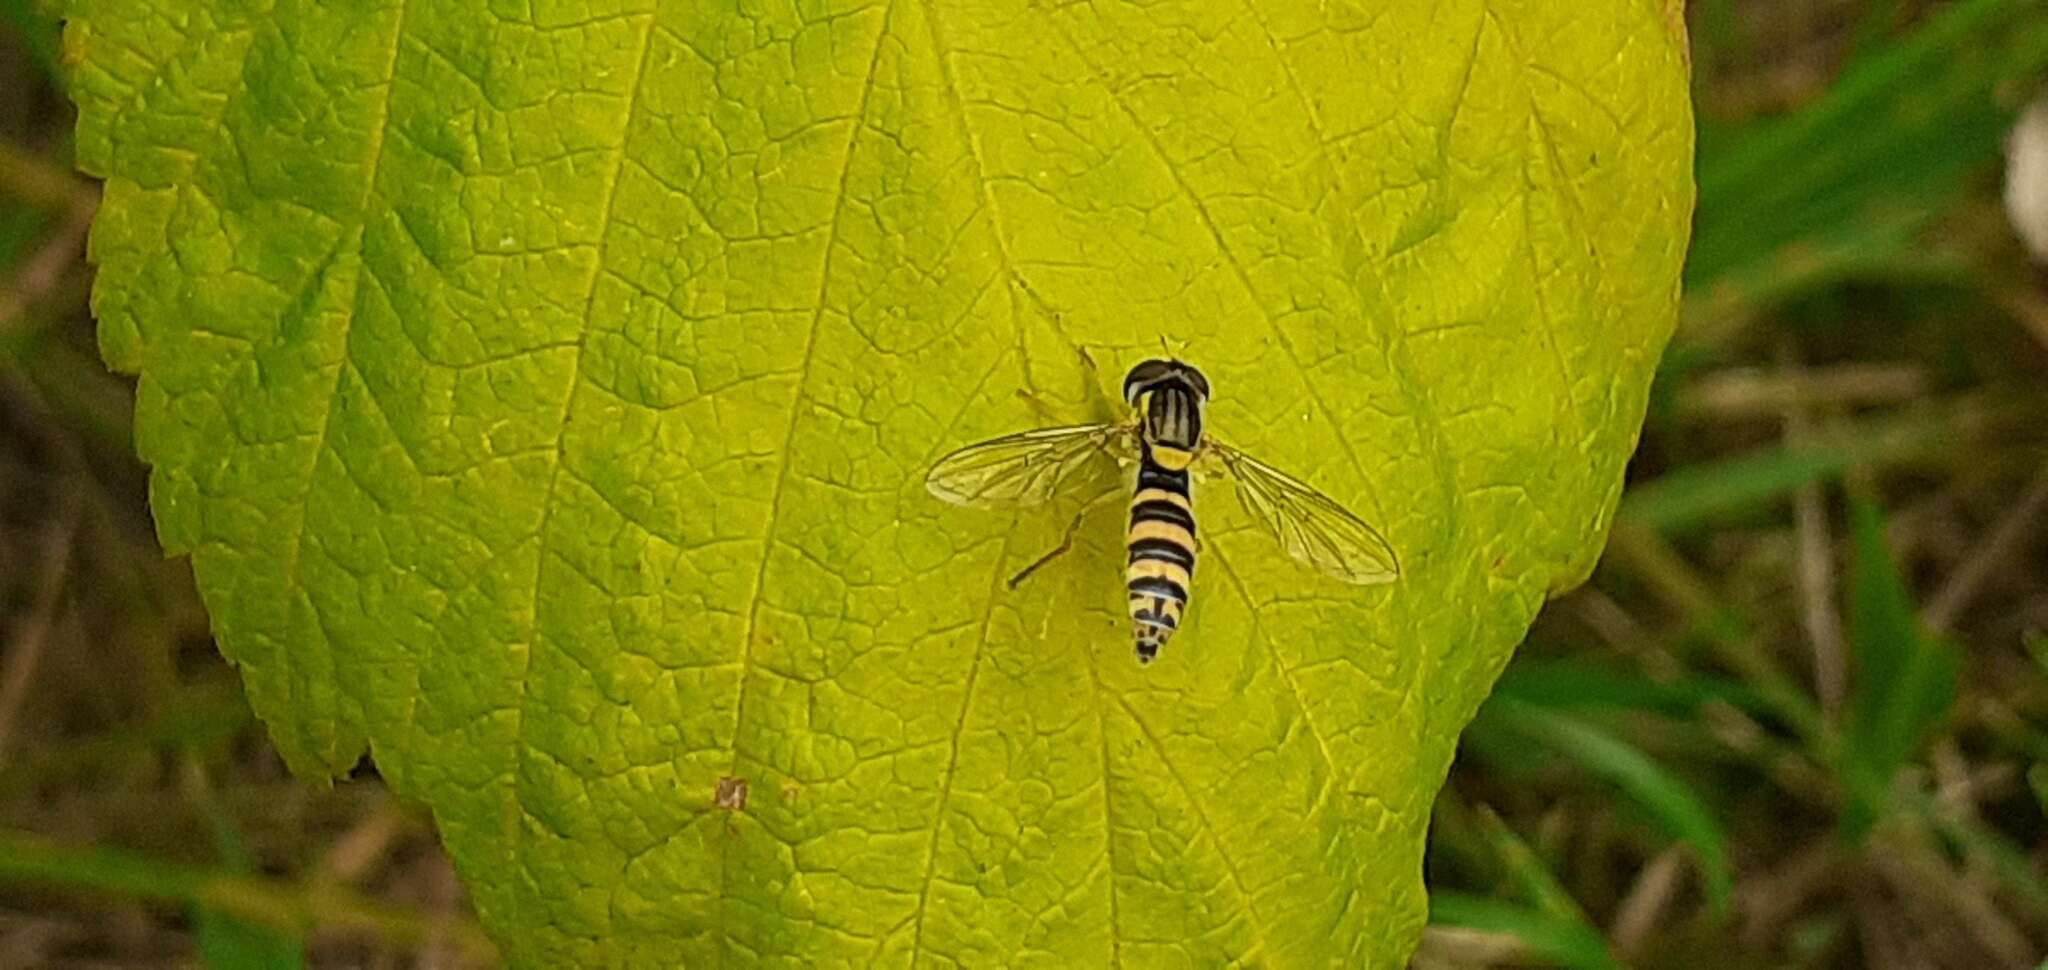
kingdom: Animalia
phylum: Arthropoda
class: Insecta
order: Diptera
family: Syrphidae
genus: Sphaerophoria
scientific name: Sphaerophoria
